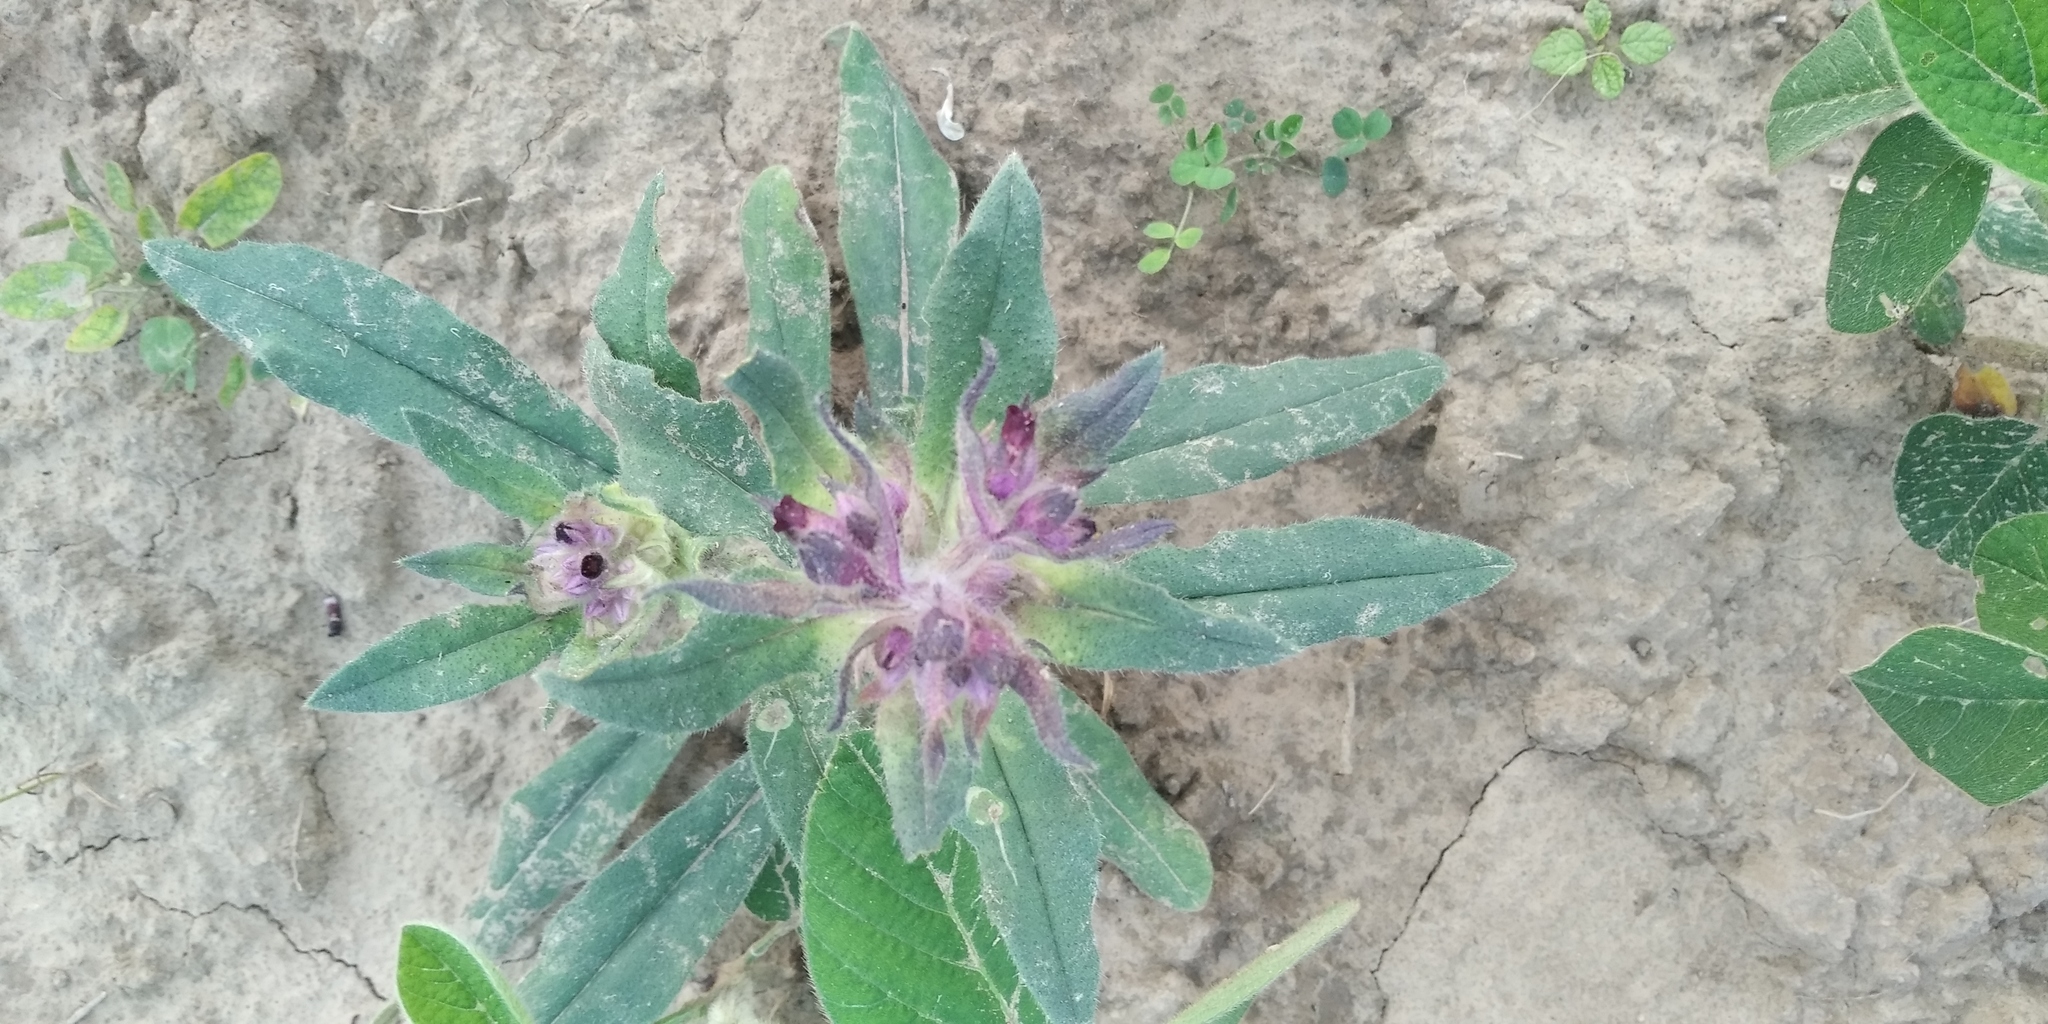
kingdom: Plantae
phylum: Tracheophyta
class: Magnoliopsida
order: Boraginales
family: Boraginaceae
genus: Nonea
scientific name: Nonea pulla
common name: Brown nonea
